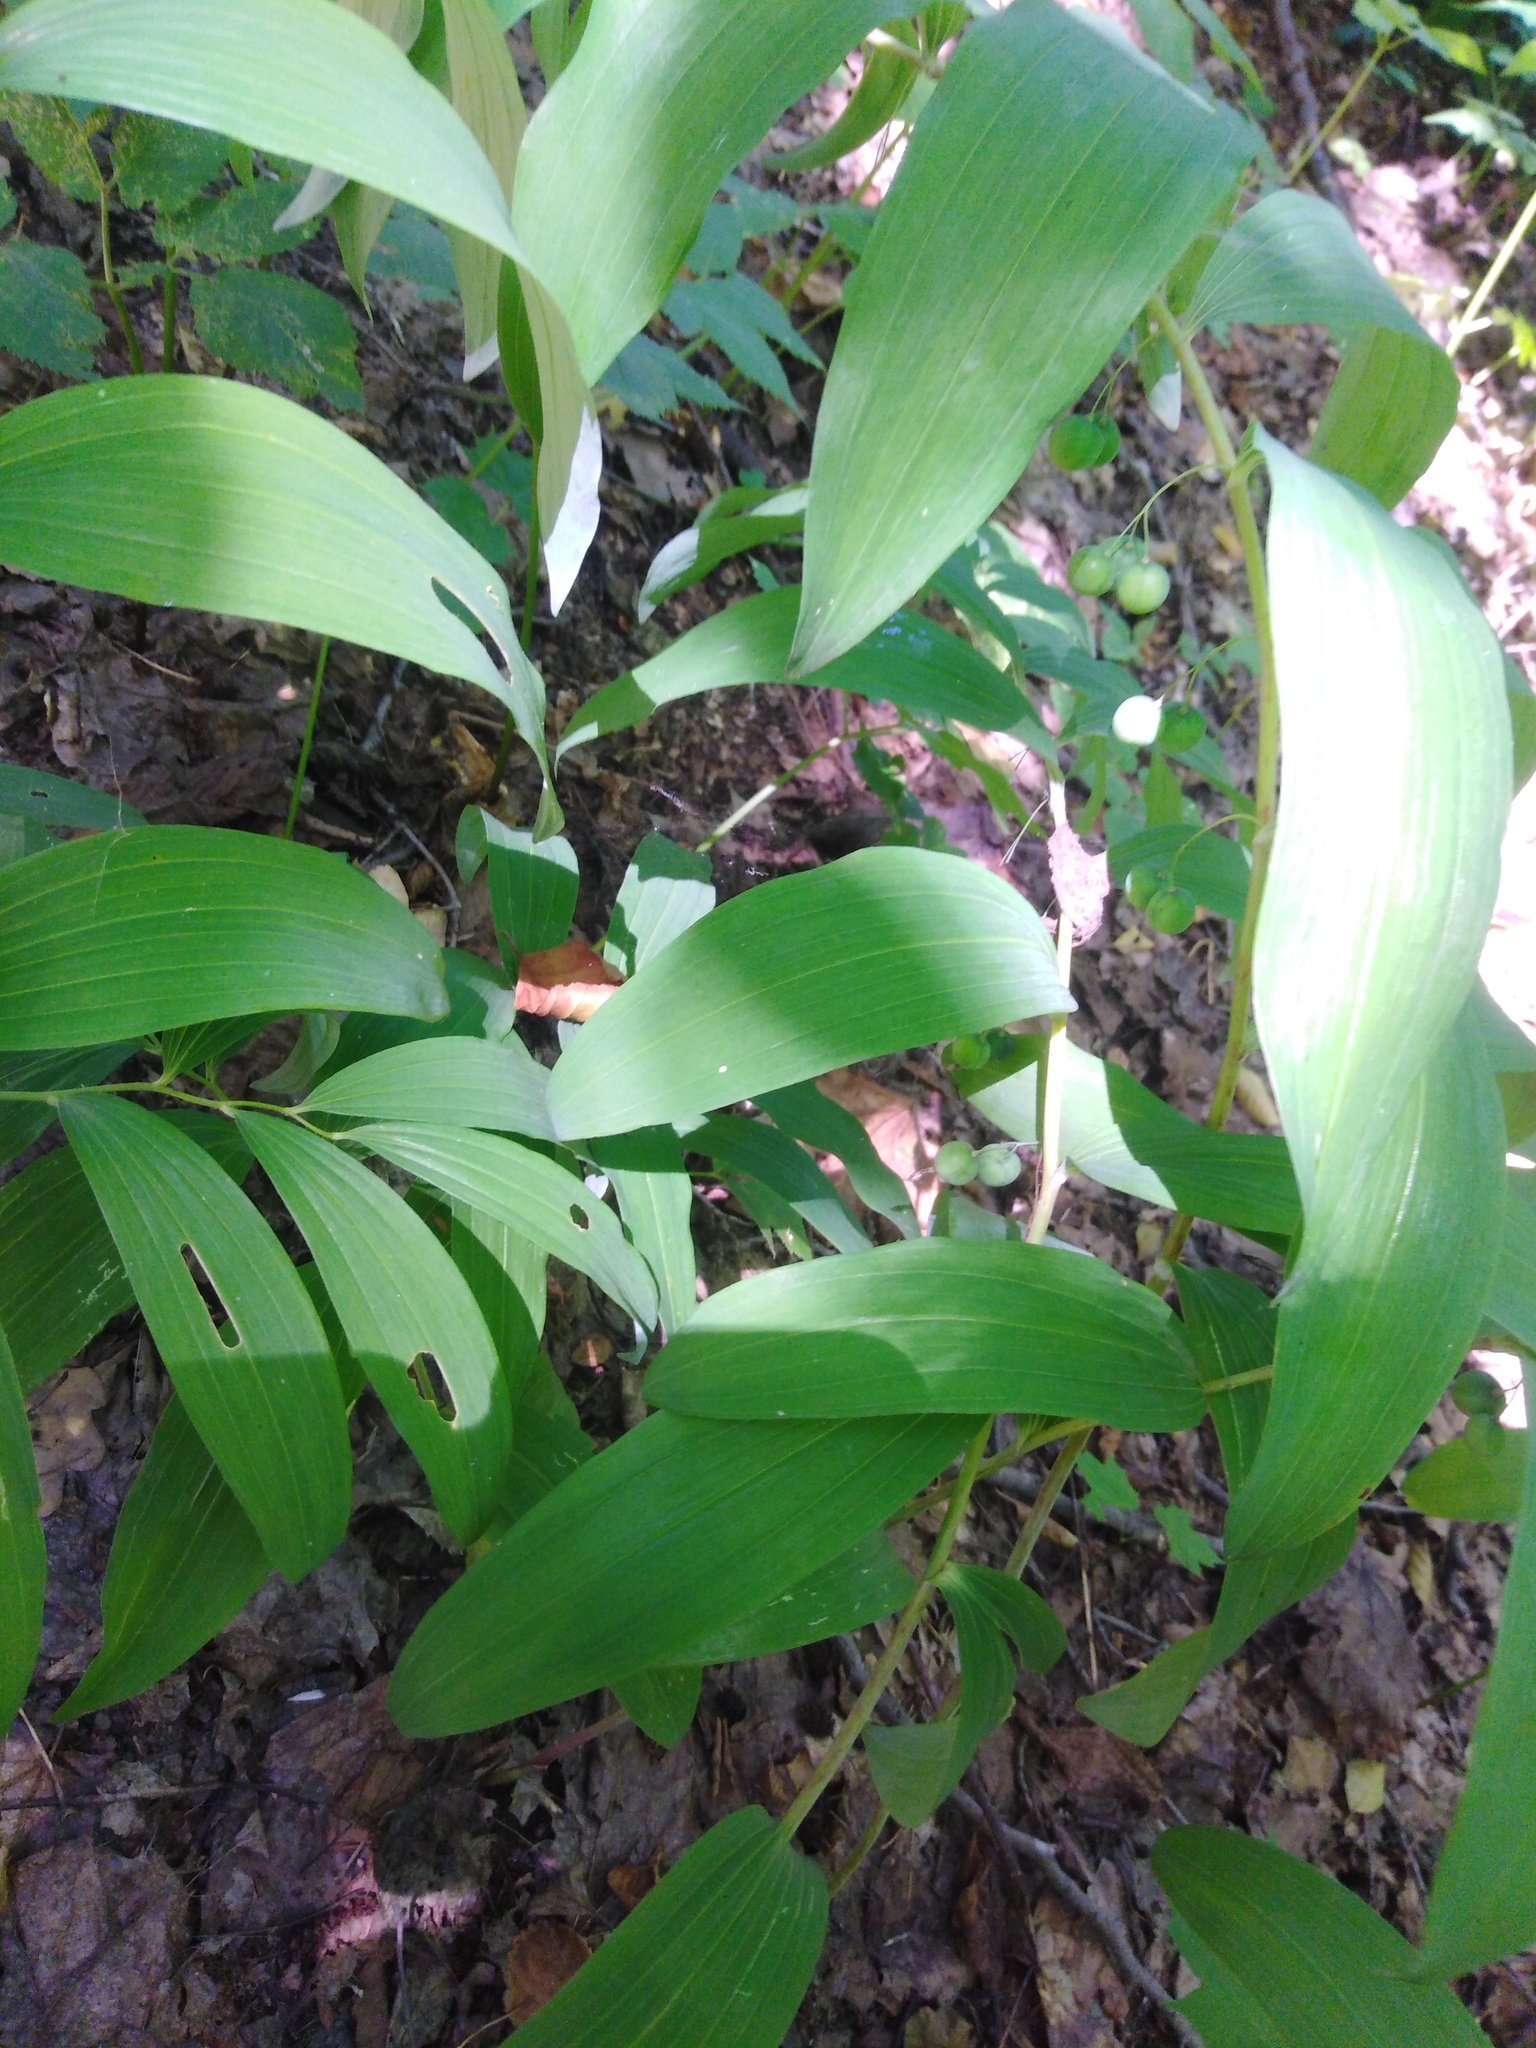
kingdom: Plantae
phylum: Tracheophyta
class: Liliopsida
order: Asparagales
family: Asparagaceae
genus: Polygonatum
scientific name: Polygonatum multiflorum
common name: Solomon's-seal
